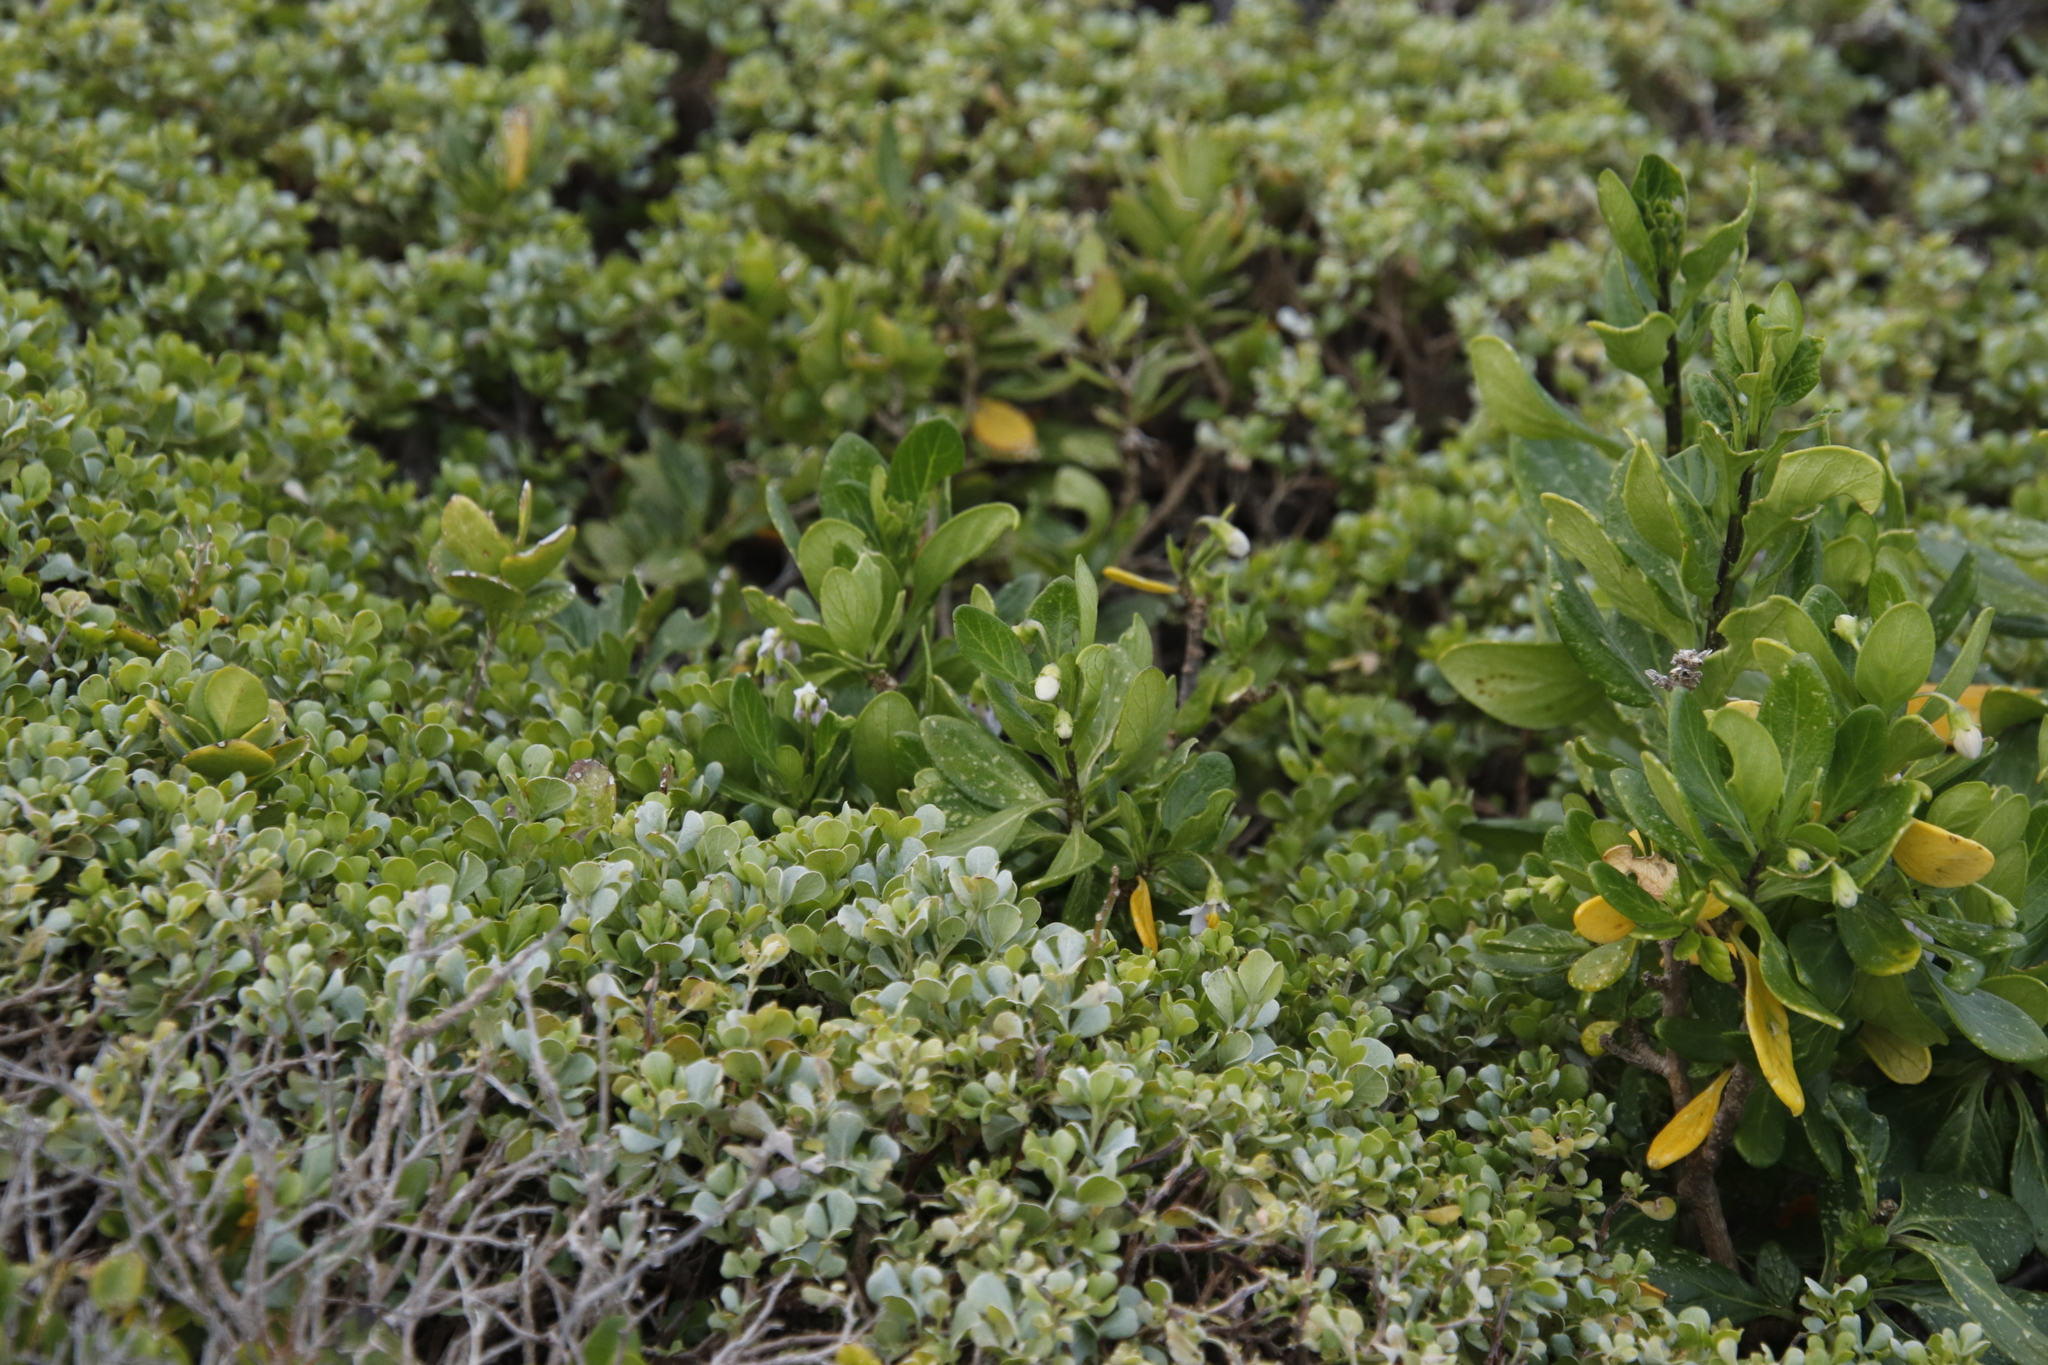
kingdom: Plantae
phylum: Tracheophyta
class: Magnoliopsida
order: Solanales
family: Solanaceae
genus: Solanum
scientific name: Solanum guineense
